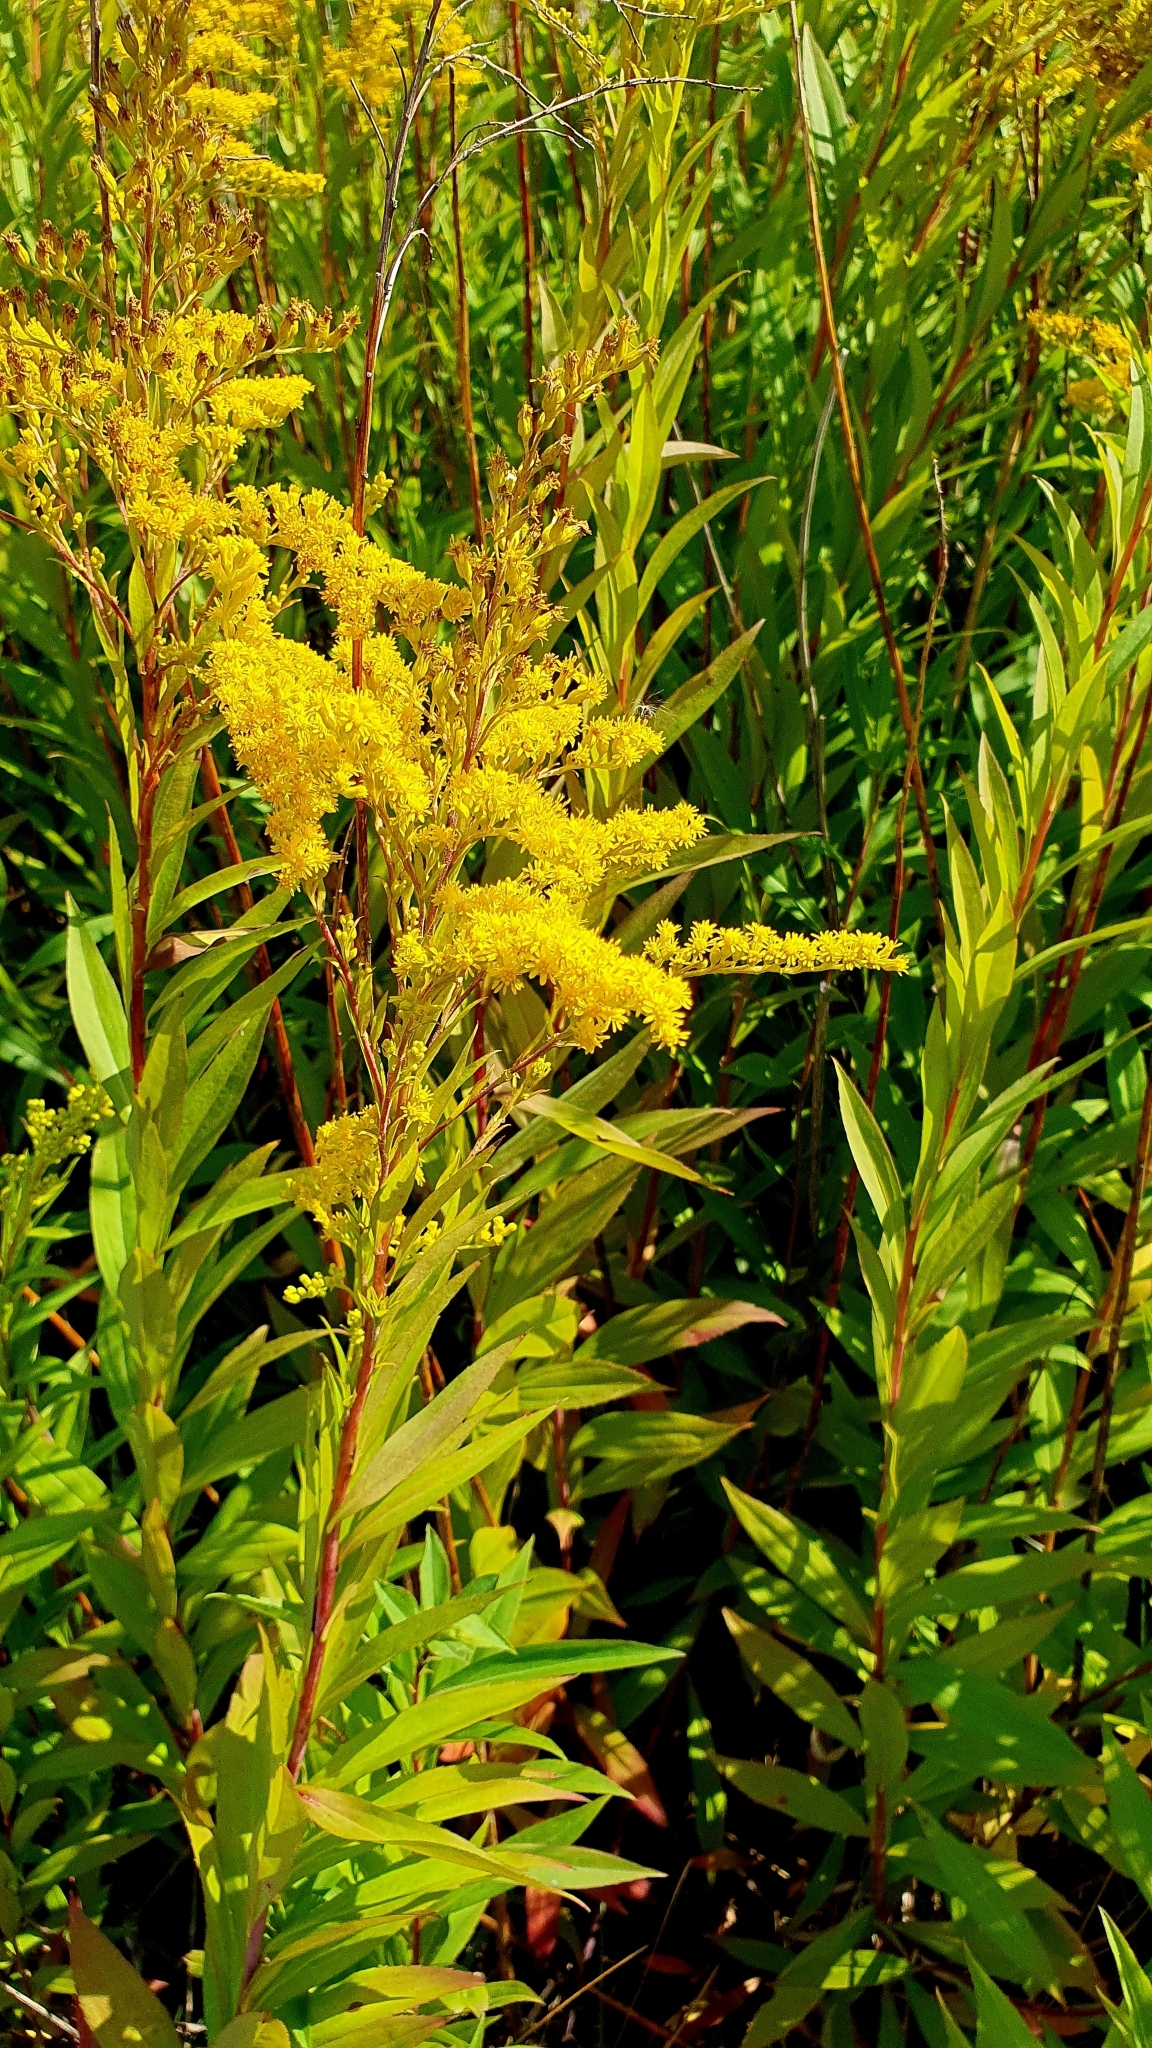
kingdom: Plantae
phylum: Tracheophyta
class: Magnoliopsida
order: Asterales
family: Asteraceae
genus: Solidago
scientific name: Solidago canadensis
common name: Canada goldenrod
